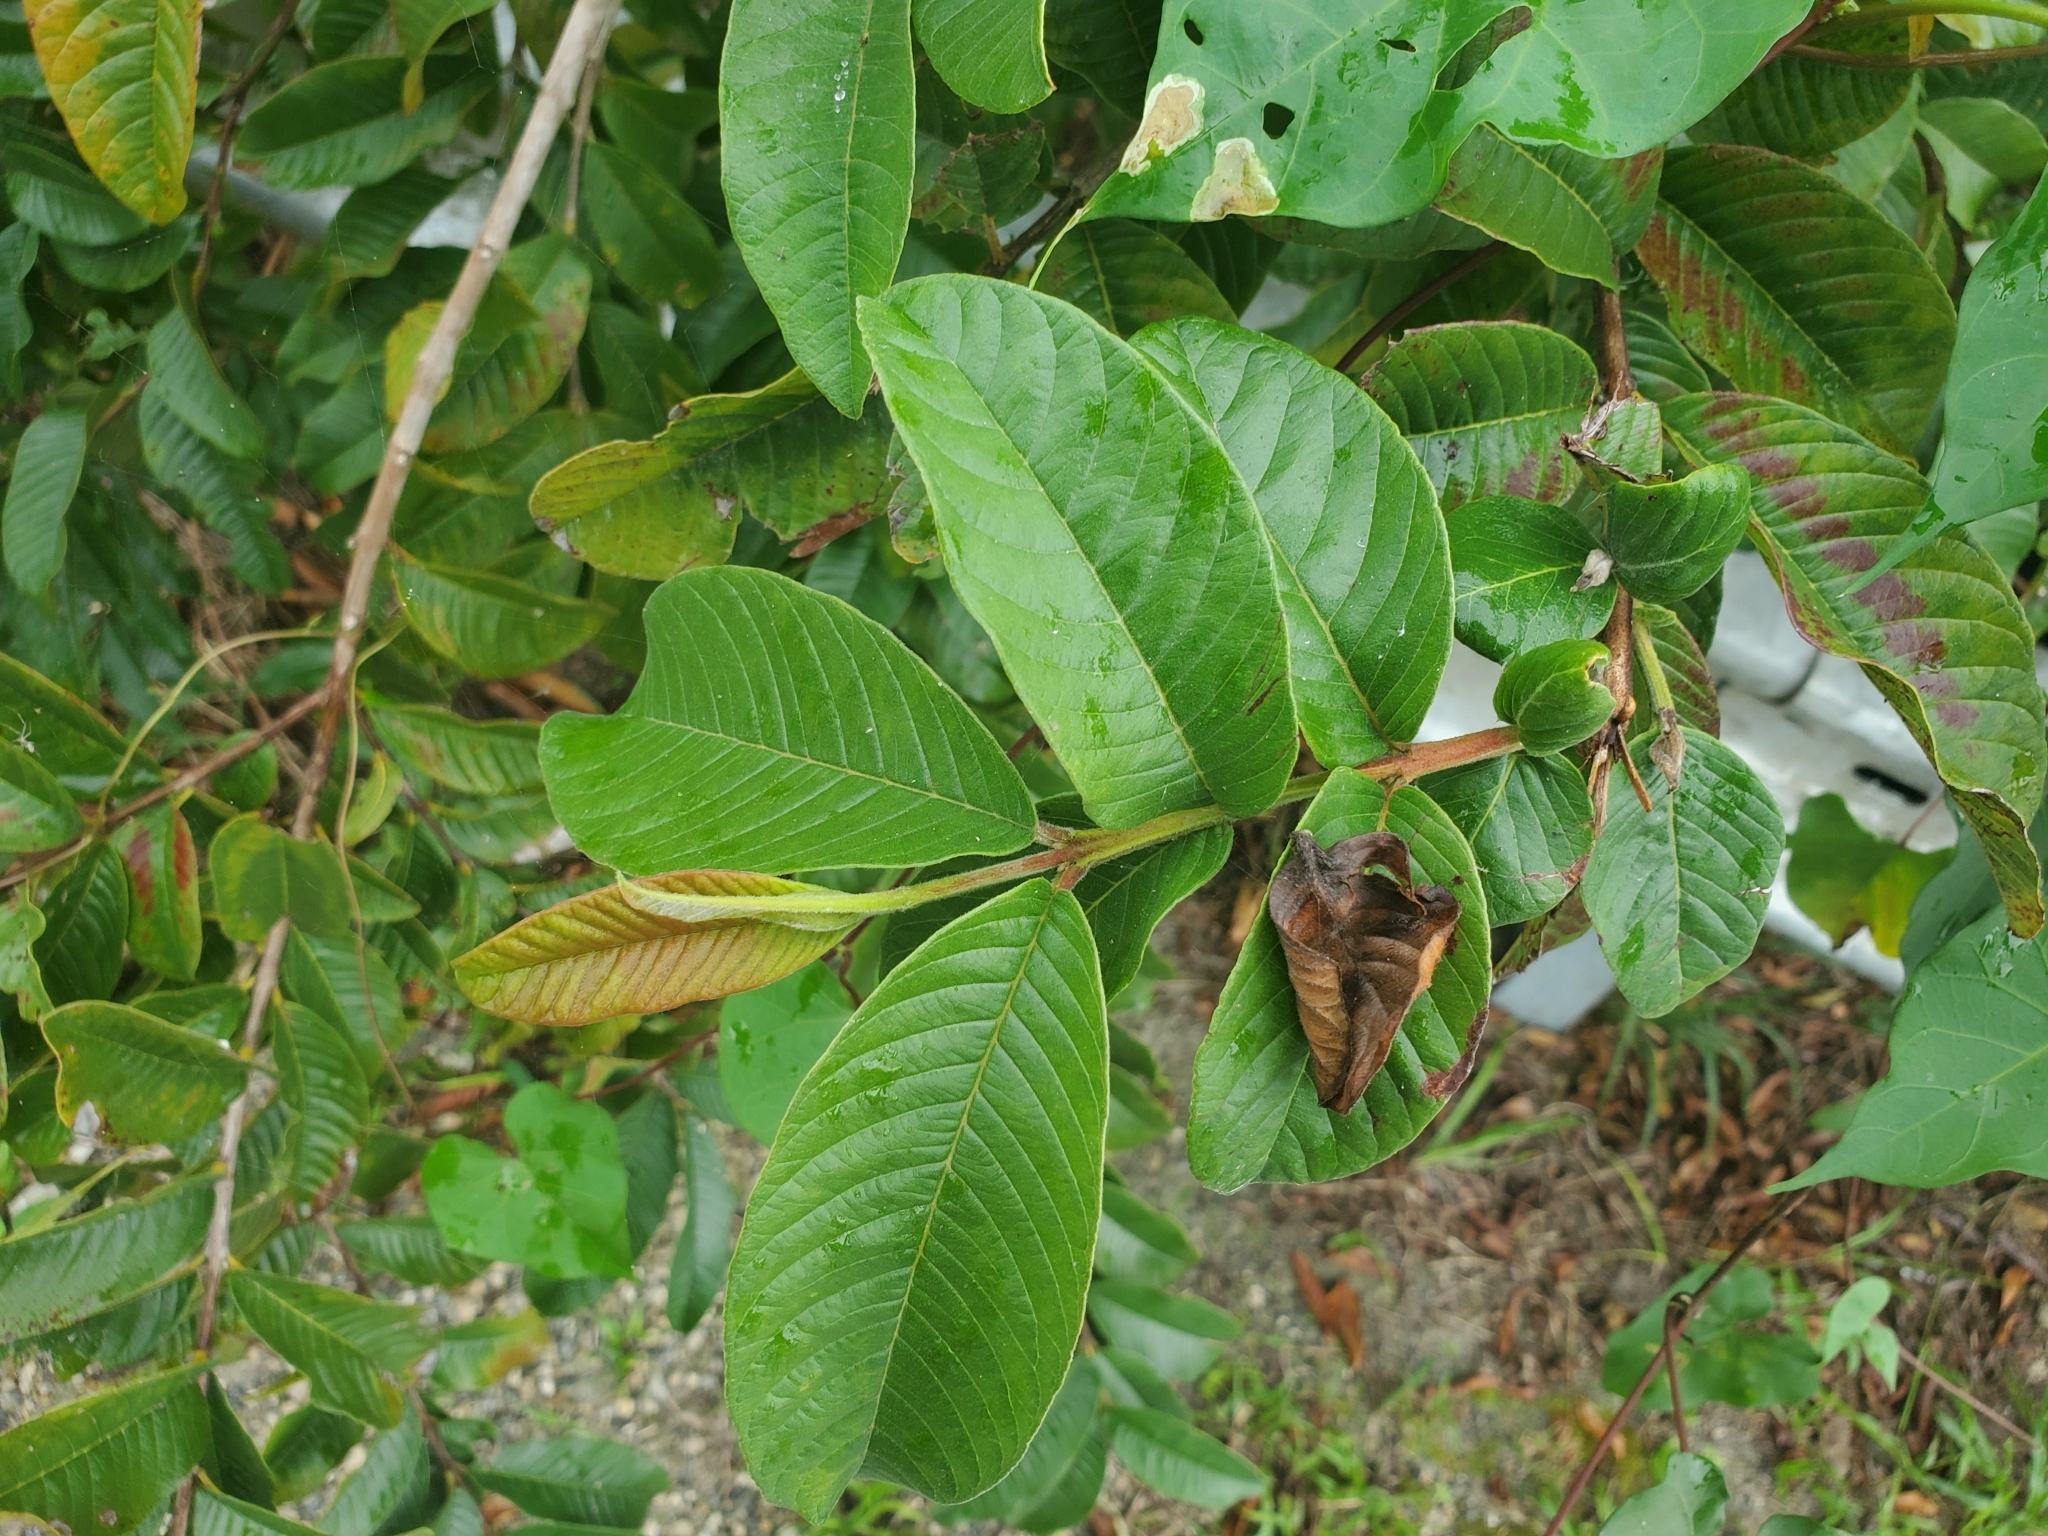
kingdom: Plantae
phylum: Tracheophyta
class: Magnoliopsida
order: Myrtales
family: Myrtaceae
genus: Psidium
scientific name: Psidium guajava
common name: Guava
